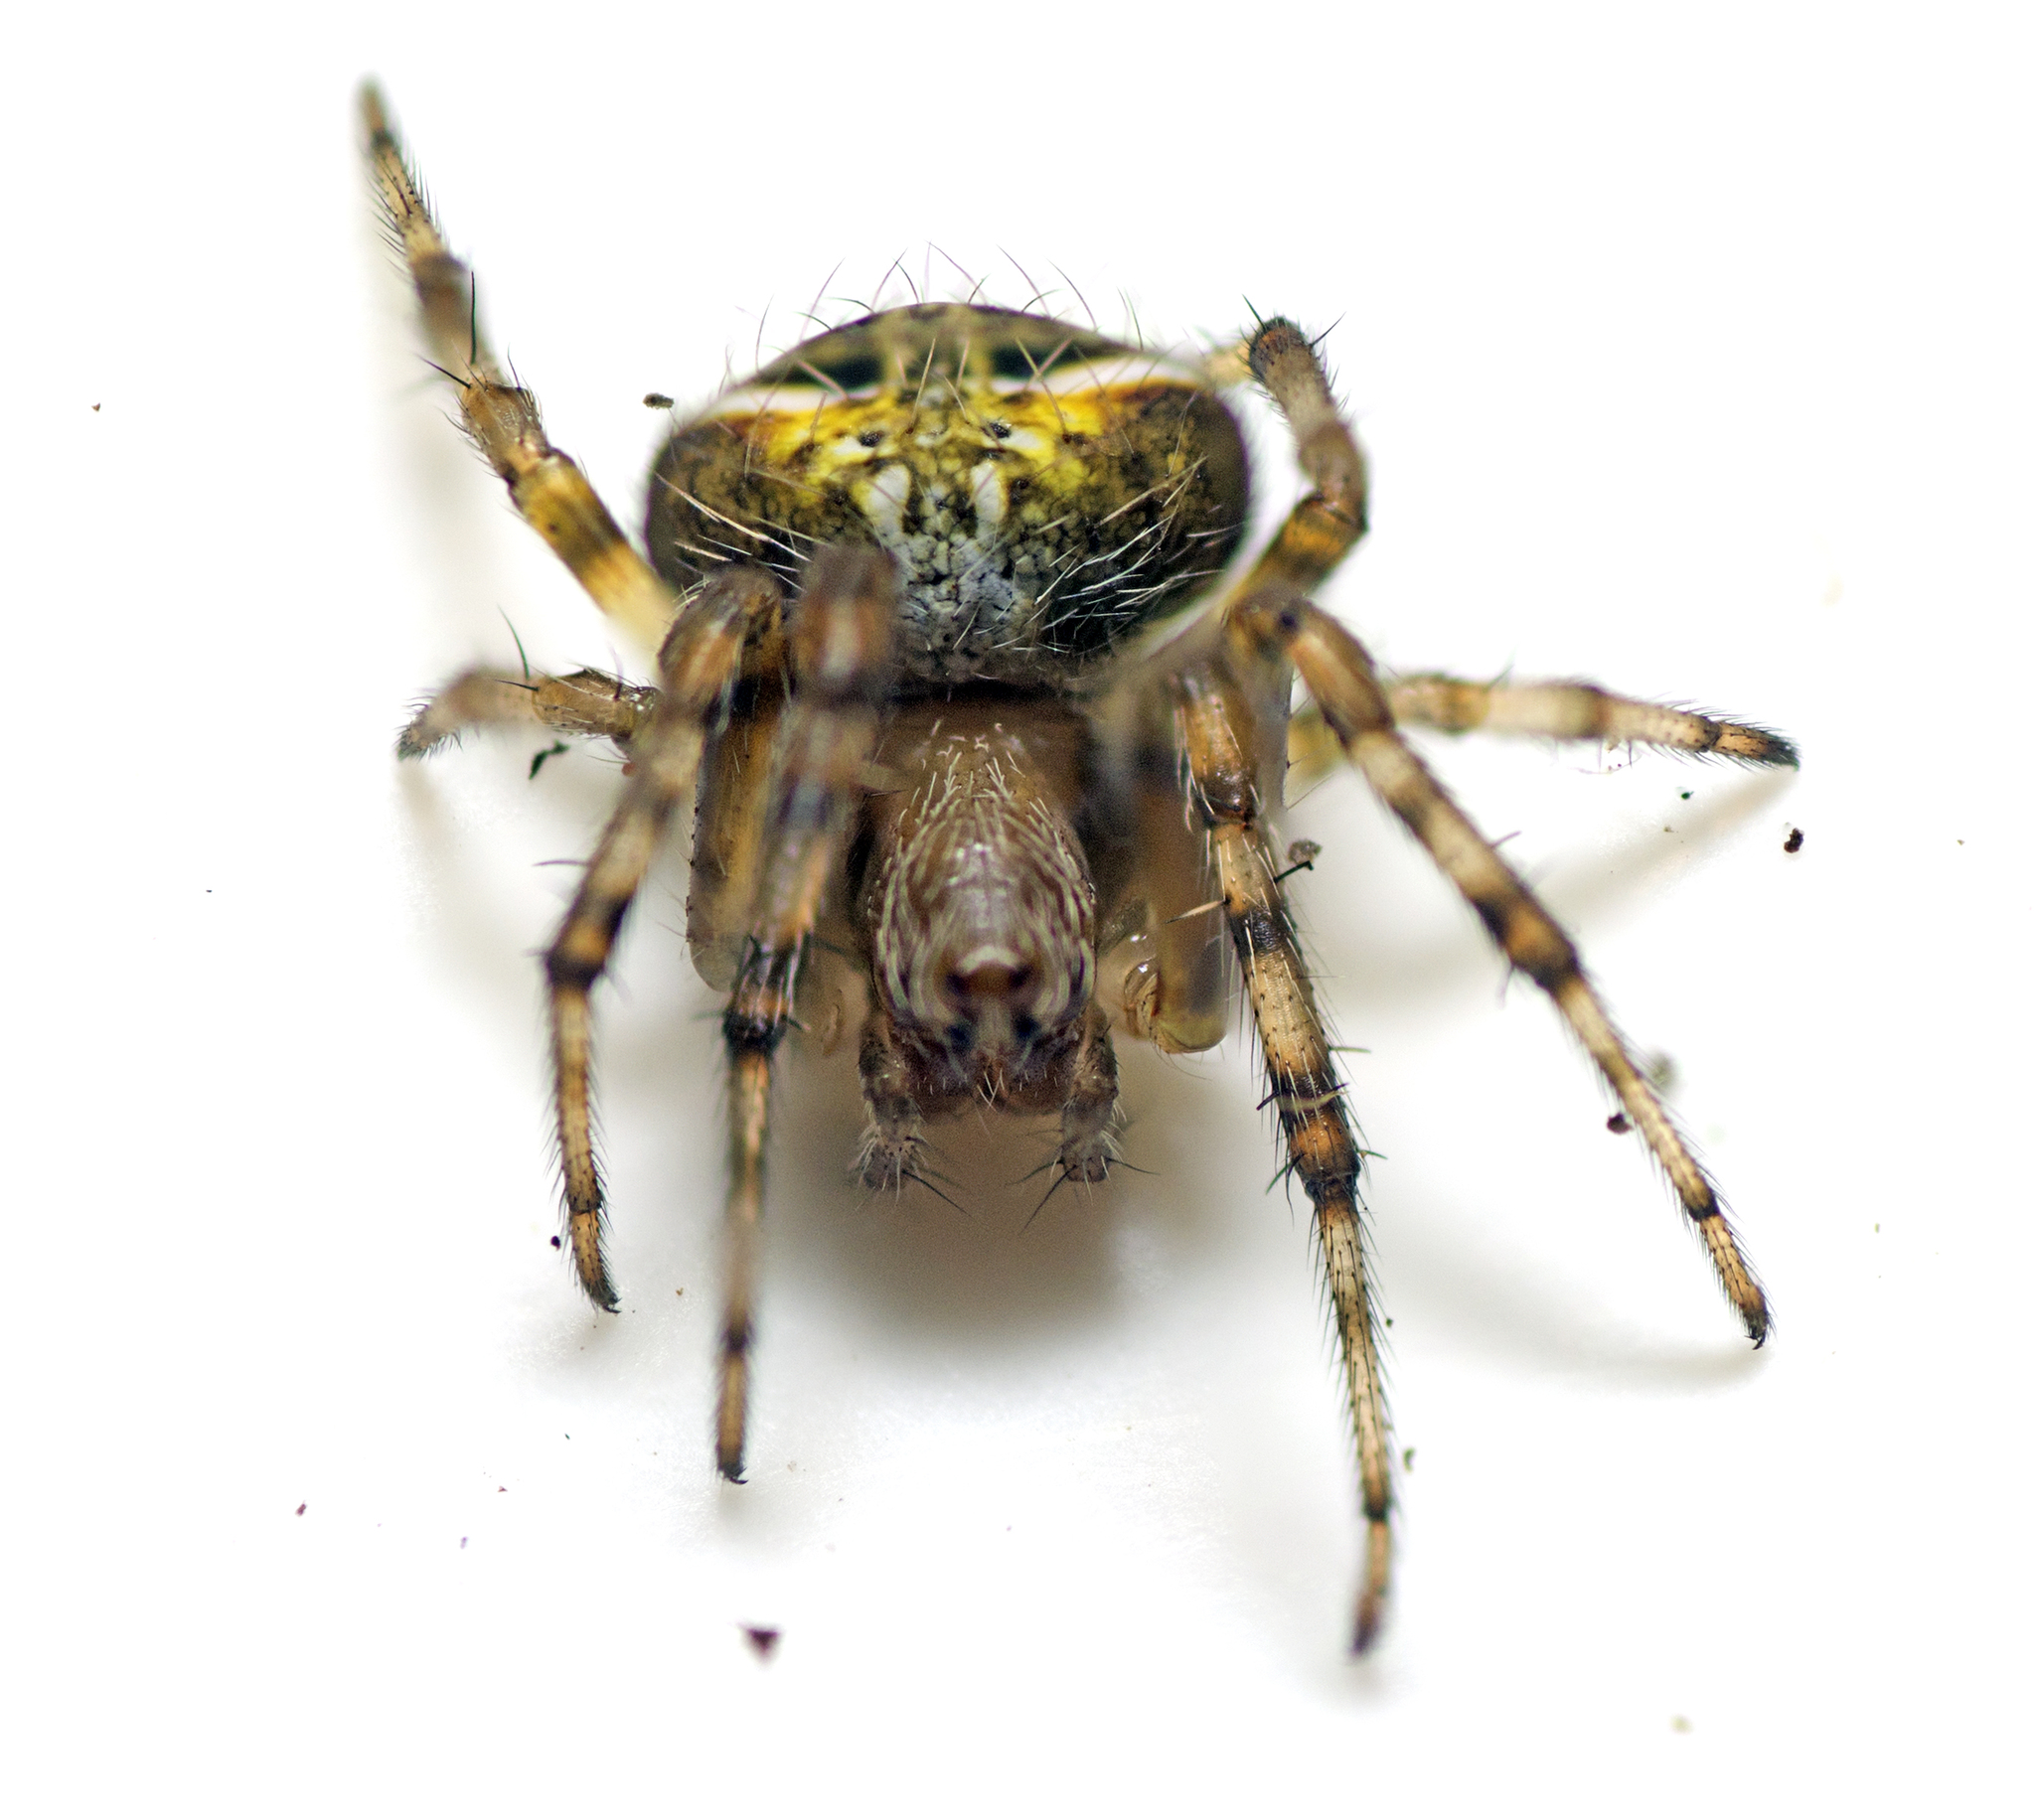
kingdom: Animalia
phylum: Arthropoda
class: Arachnida
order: Araneae
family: Araneidae
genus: Araneus
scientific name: Araneus albotriangulus
